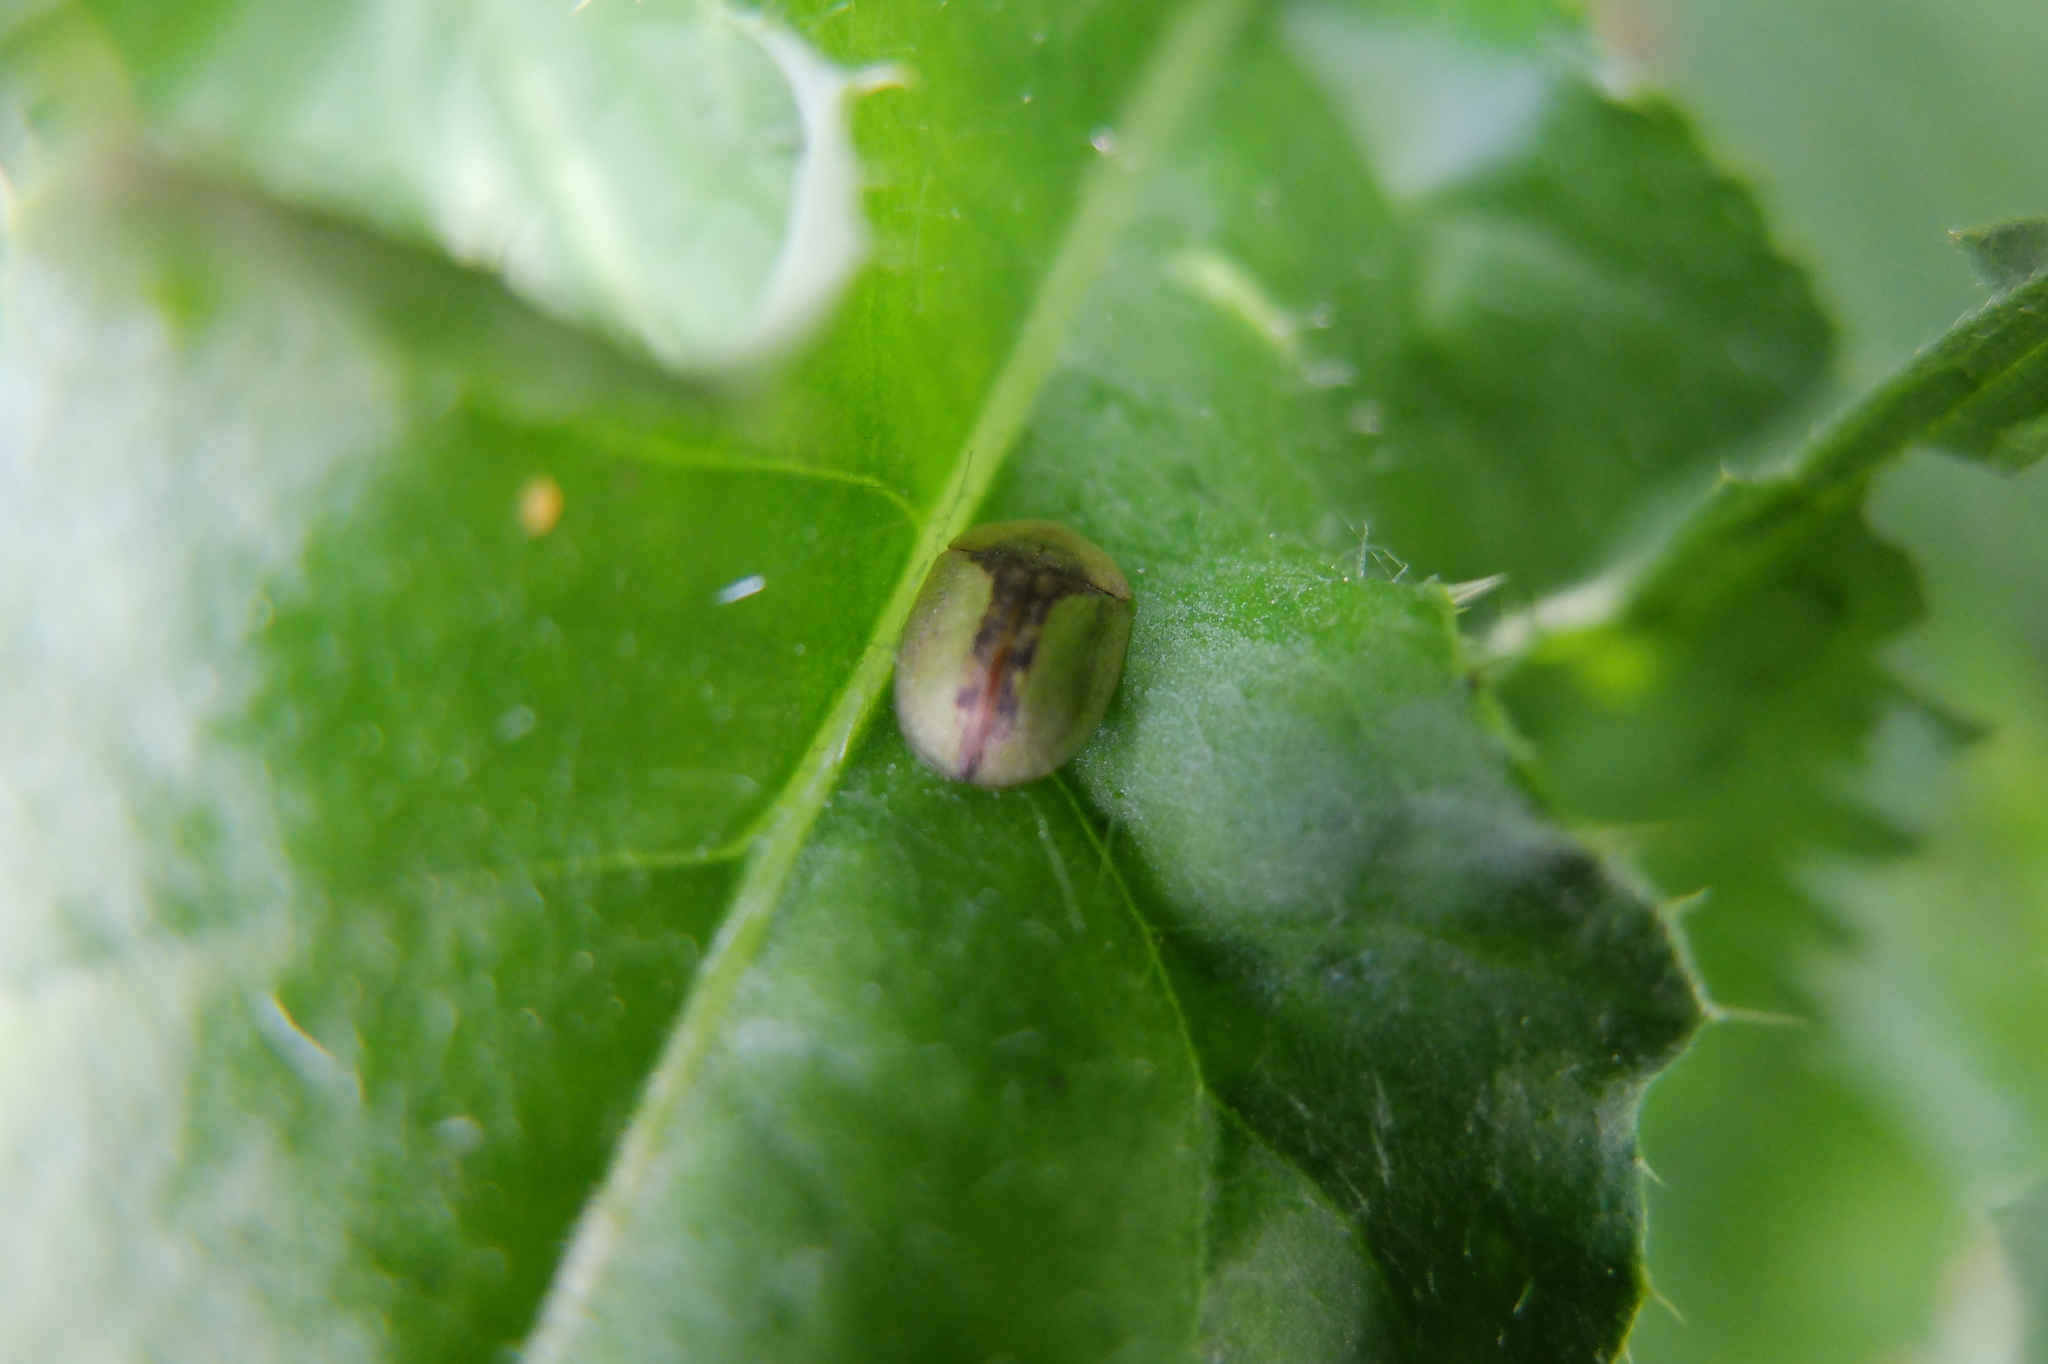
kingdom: Animalia
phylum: Arthropoda
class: Insecta
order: Coleoptera
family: Chrysomelidae
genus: Cassida
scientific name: Cassida vibex
